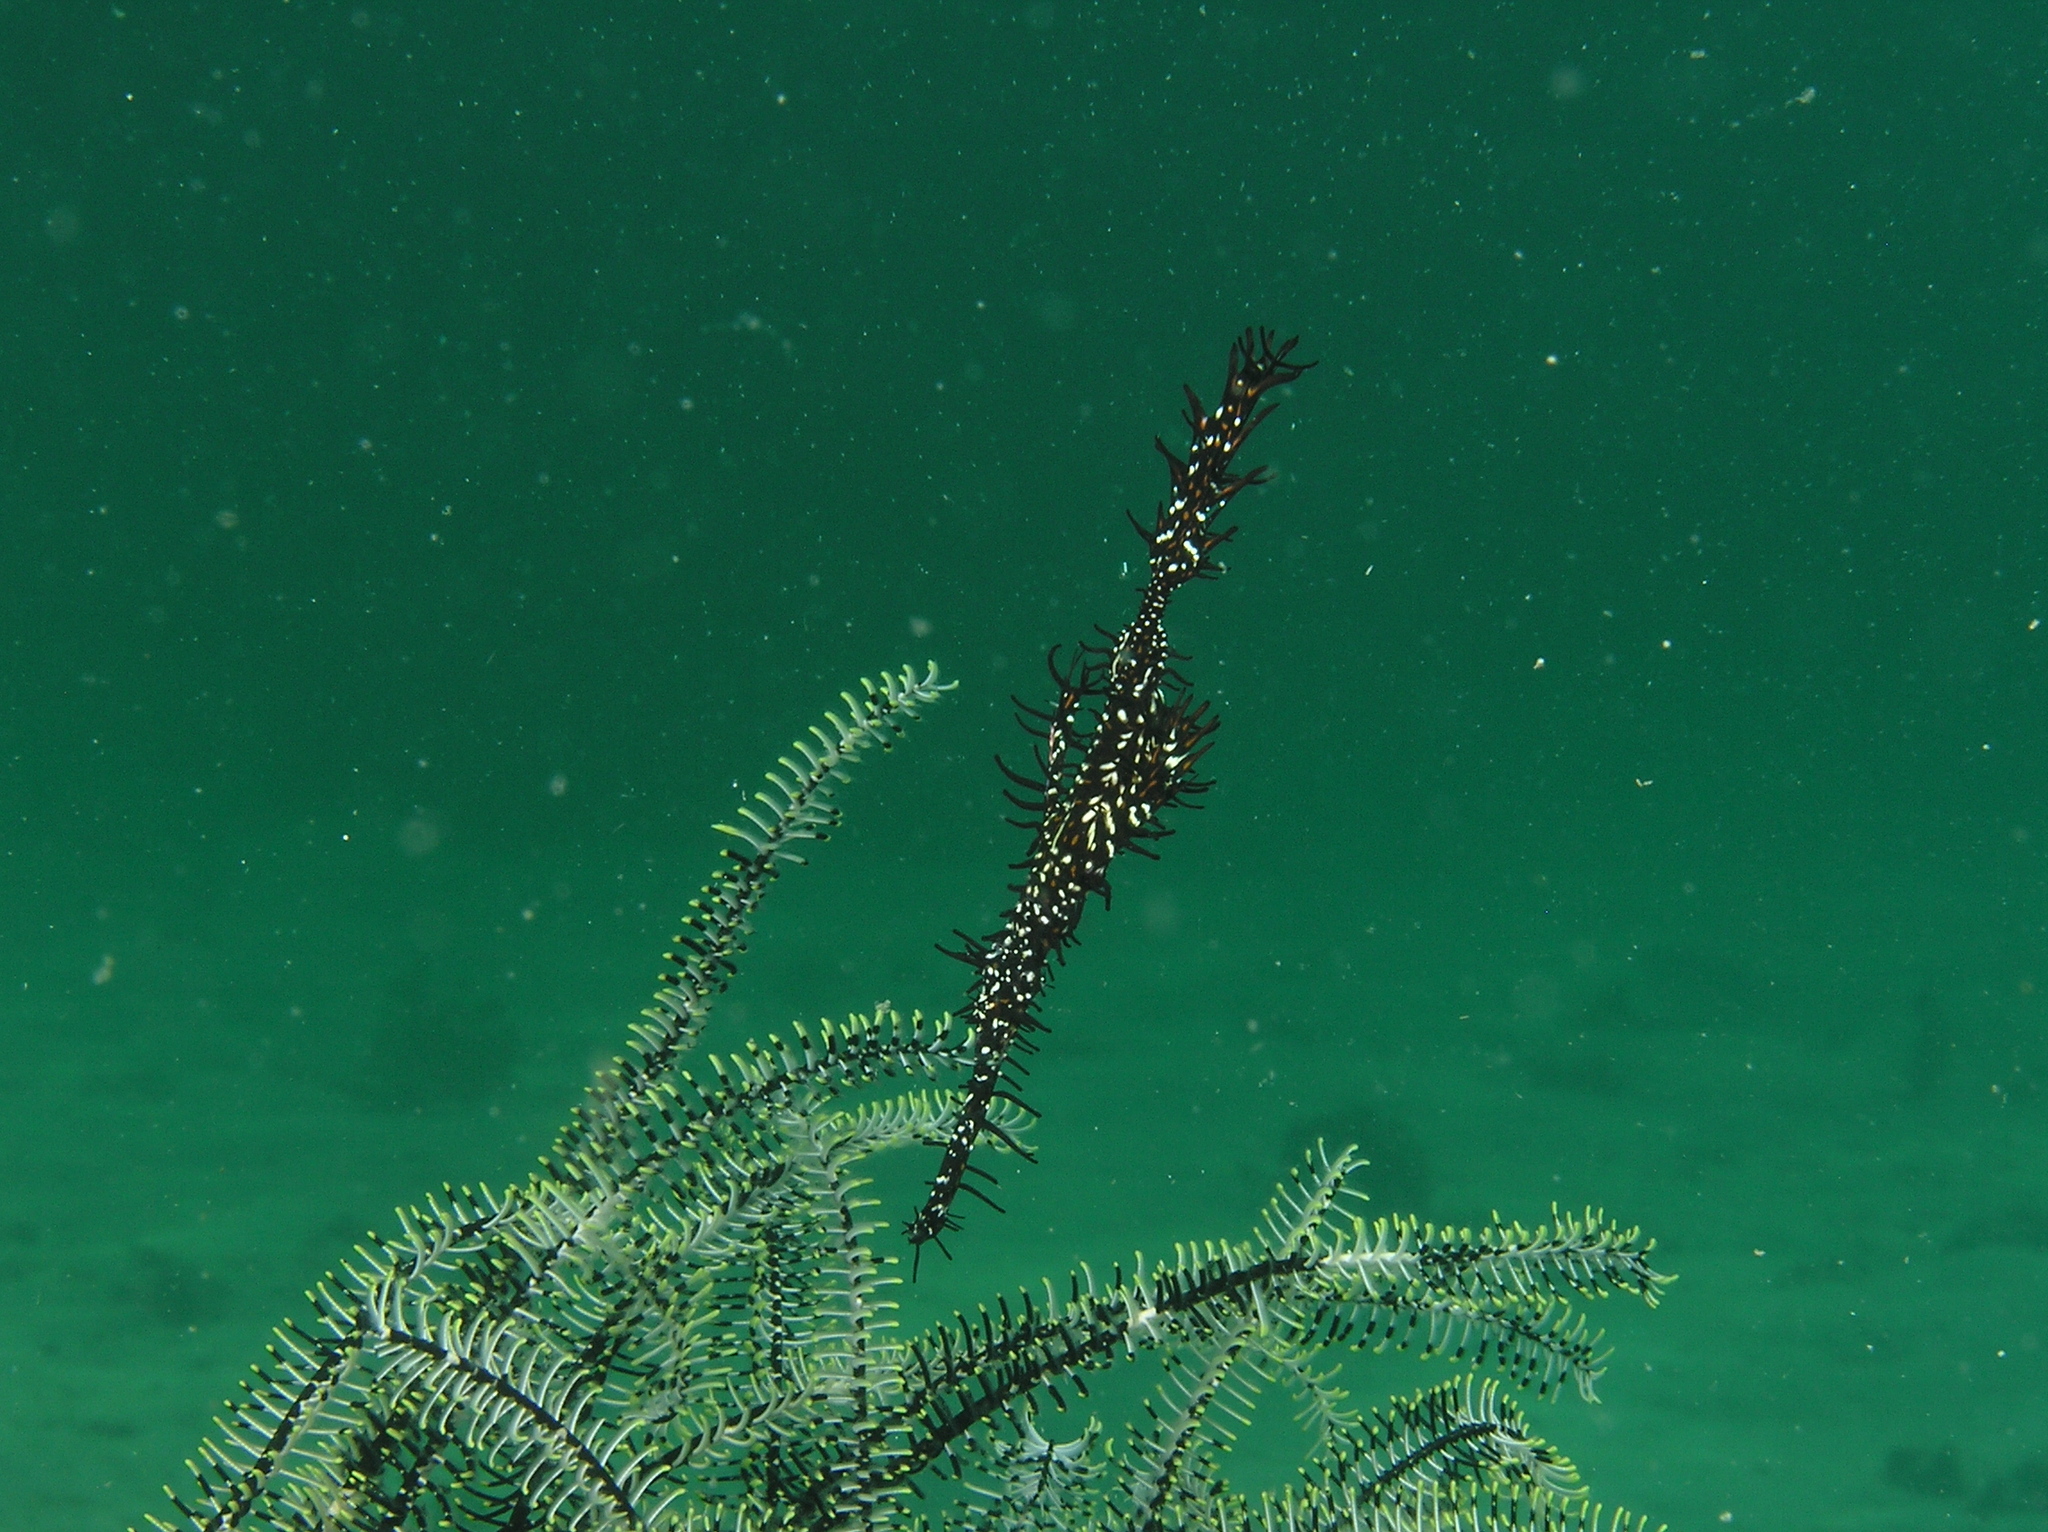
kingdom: Animalia
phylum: Chordata
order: Syngnathiformes
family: Solenostomidae
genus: Solenostomus
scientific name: Solenostomus paradoxus
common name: Ghost pipefish
